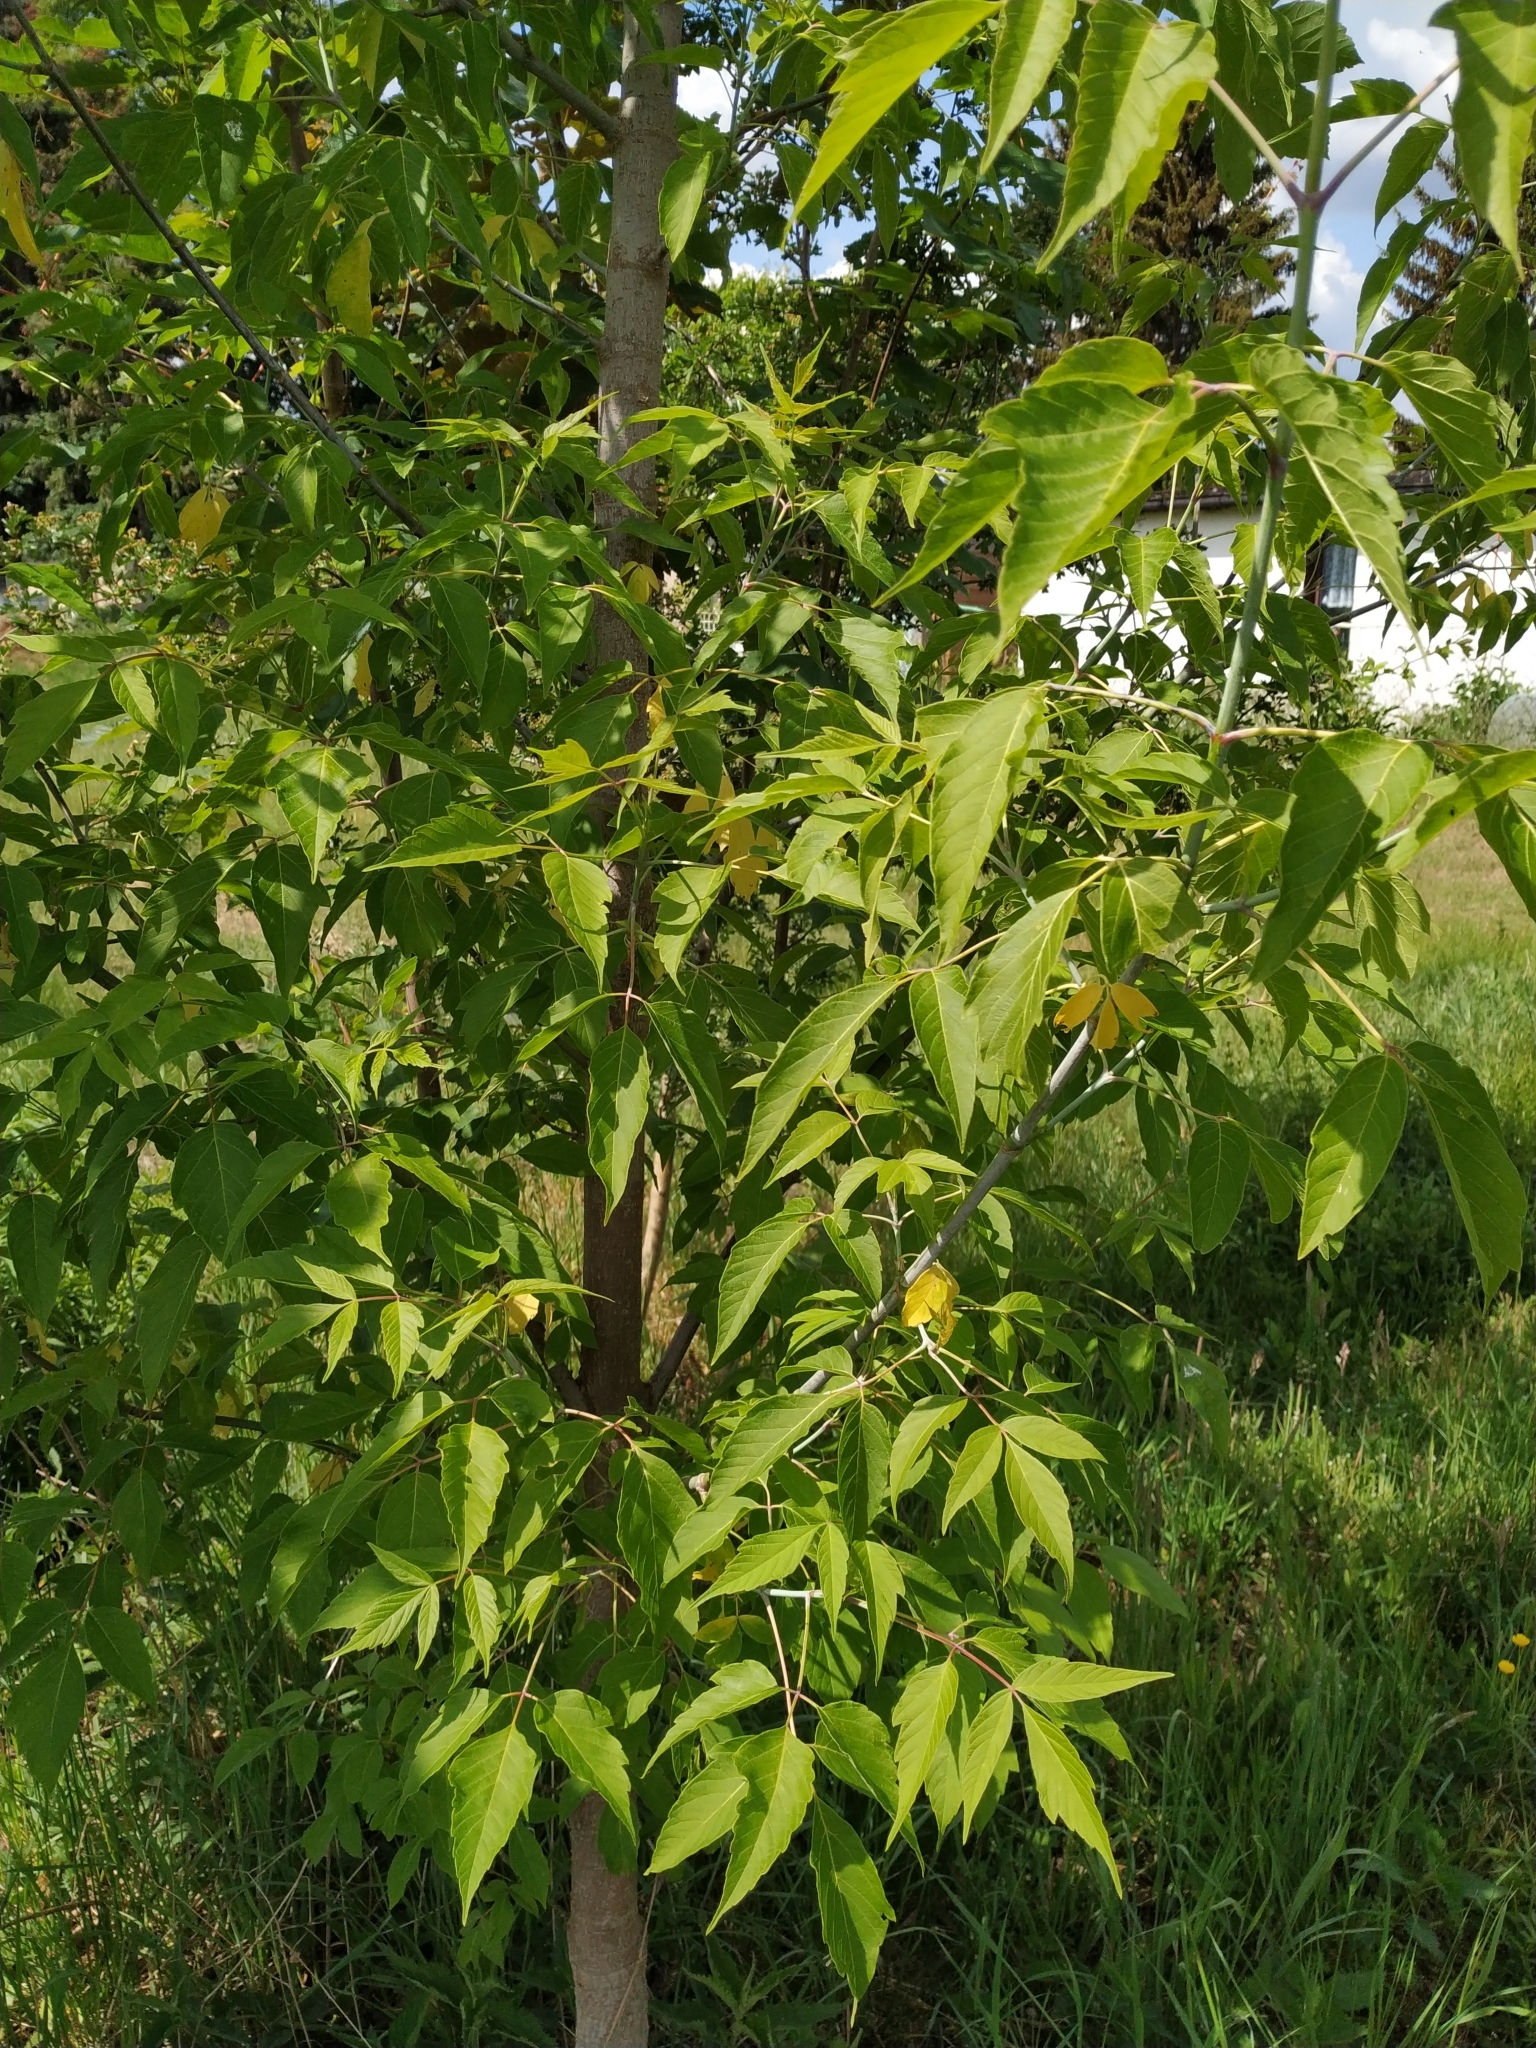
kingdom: Plantae
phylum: Tracheophyta
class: Magnoliopsida
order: Sapindales
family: Sapindaceae
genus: Acer
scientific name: Acer negundo
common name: Ashleaf maple
